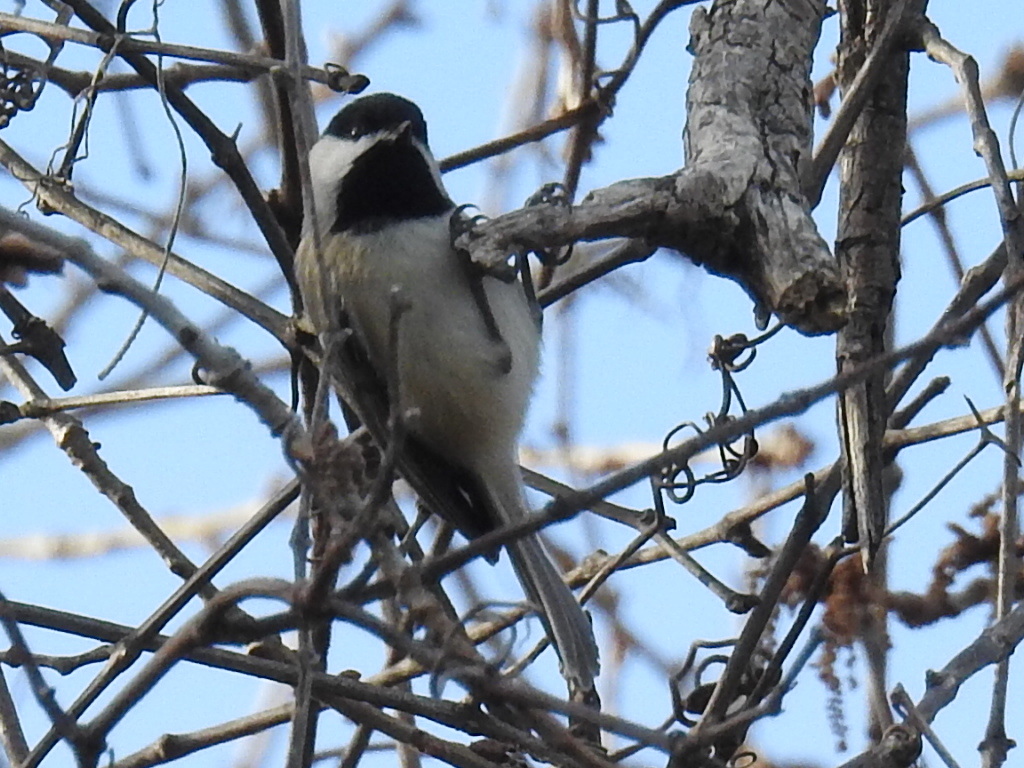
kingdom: Animalia
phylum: Chordata
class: Aves
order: Passeriformes
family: Paridae
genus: Poecile
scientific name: Poecile carolinensis
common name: Carolina chickadee
